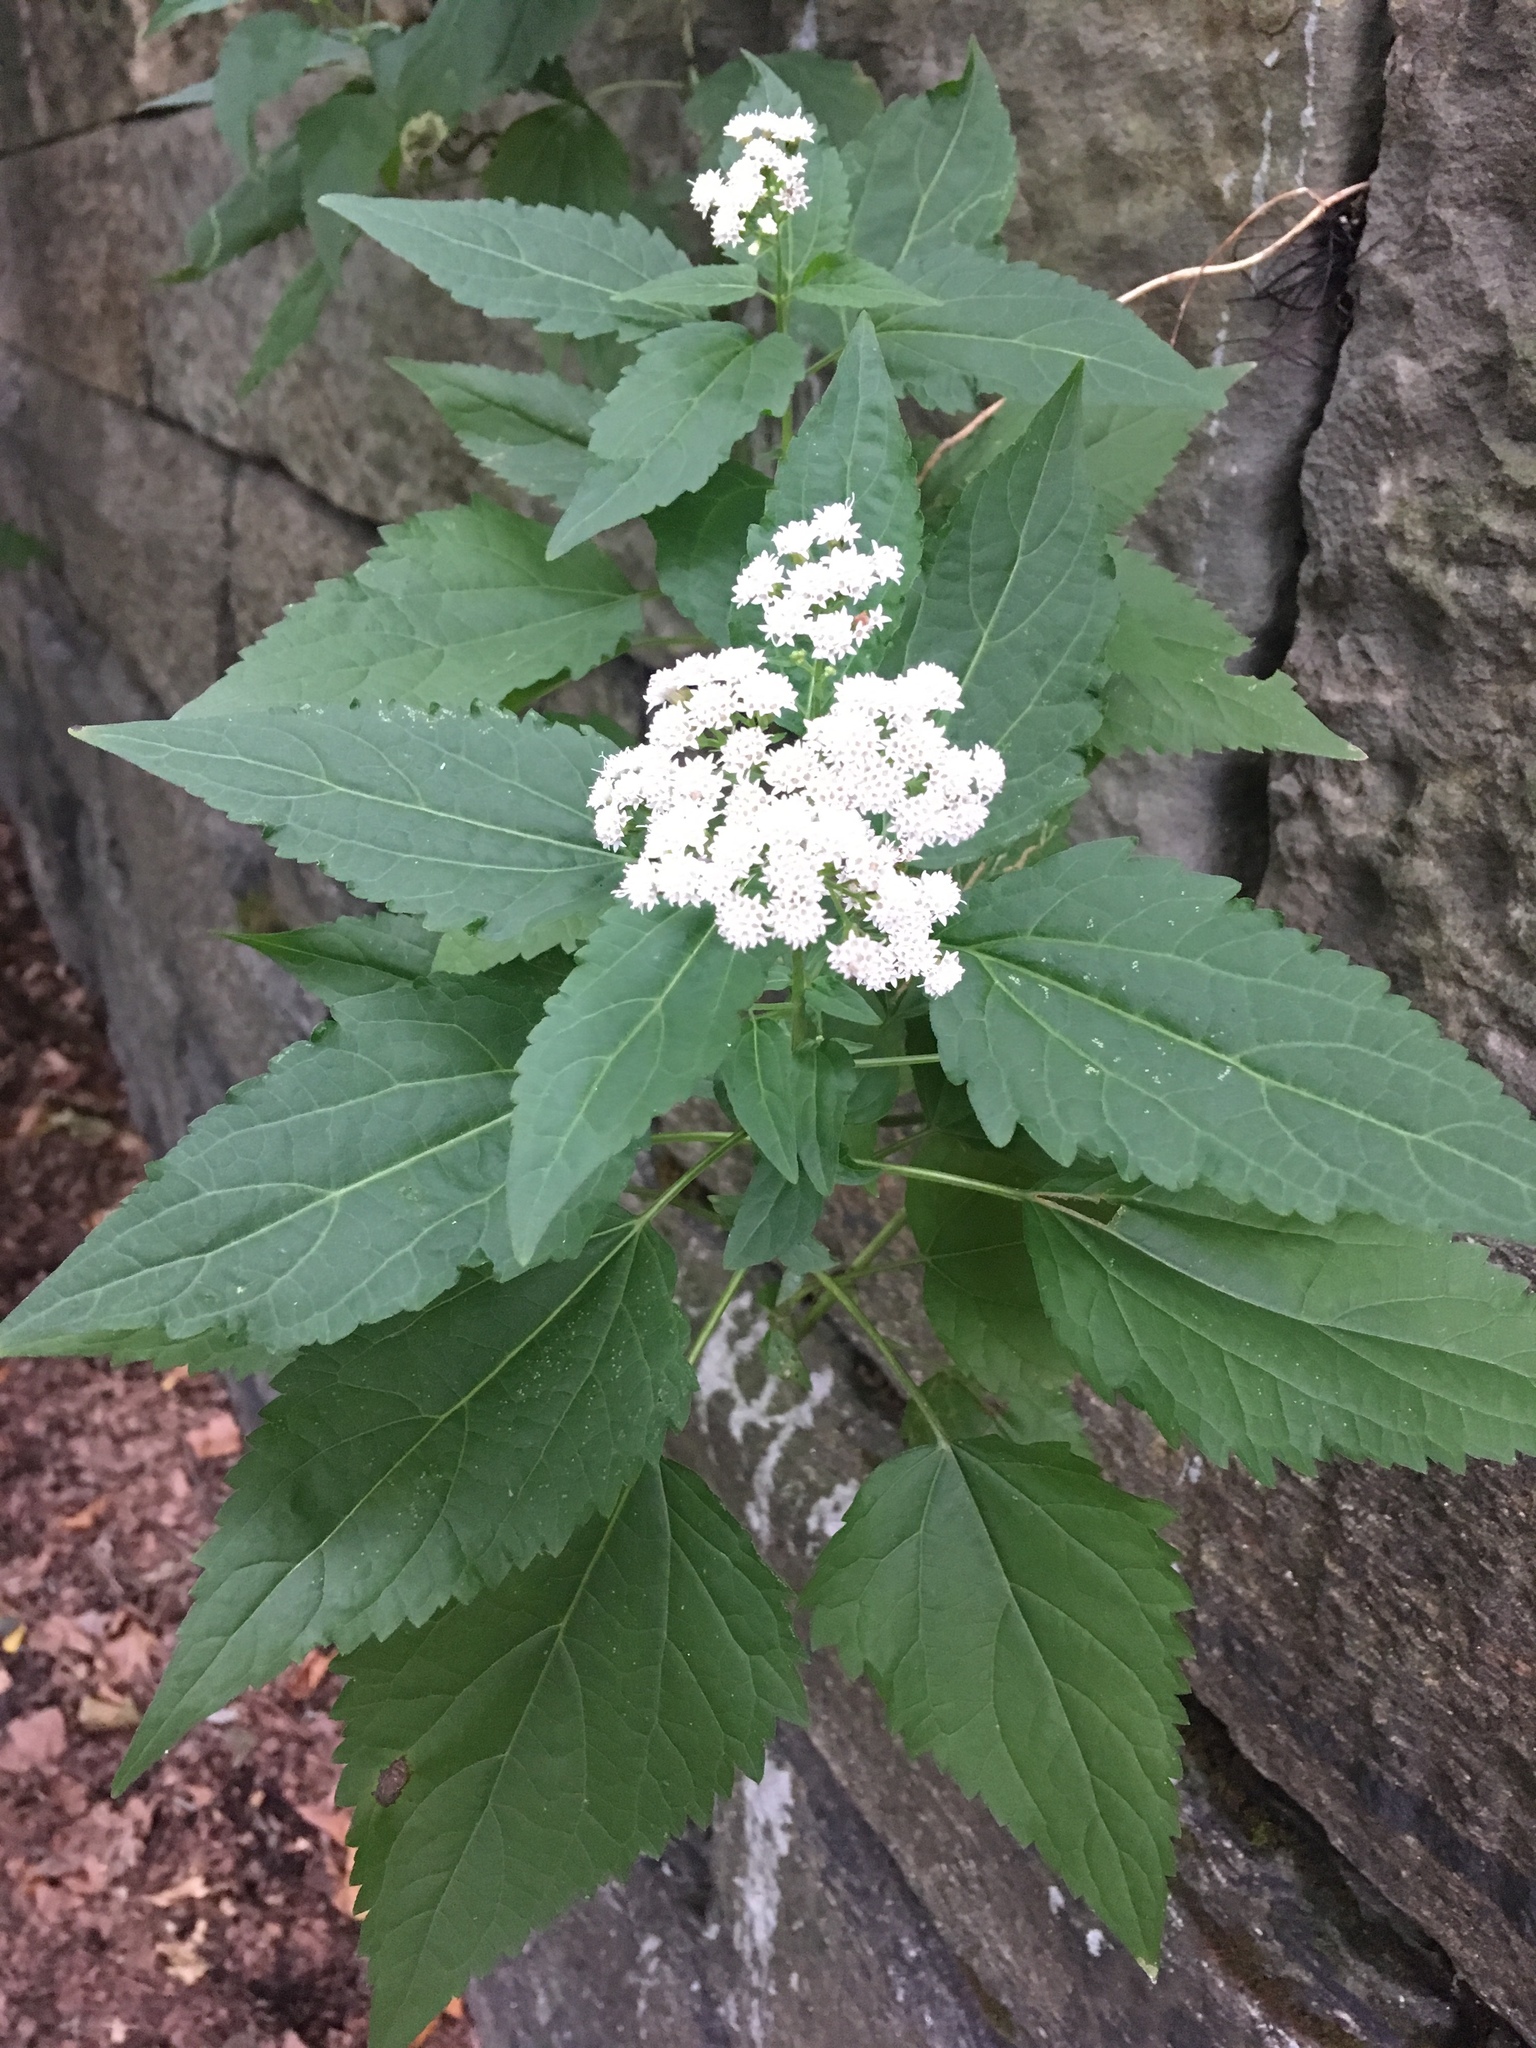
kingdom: Plantae
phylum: Tracheophyta
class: Magnoliopsida
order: Asterales
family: Asteraceae
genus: Ageratina
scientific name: Ageratina altissima
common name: White snakeroot
